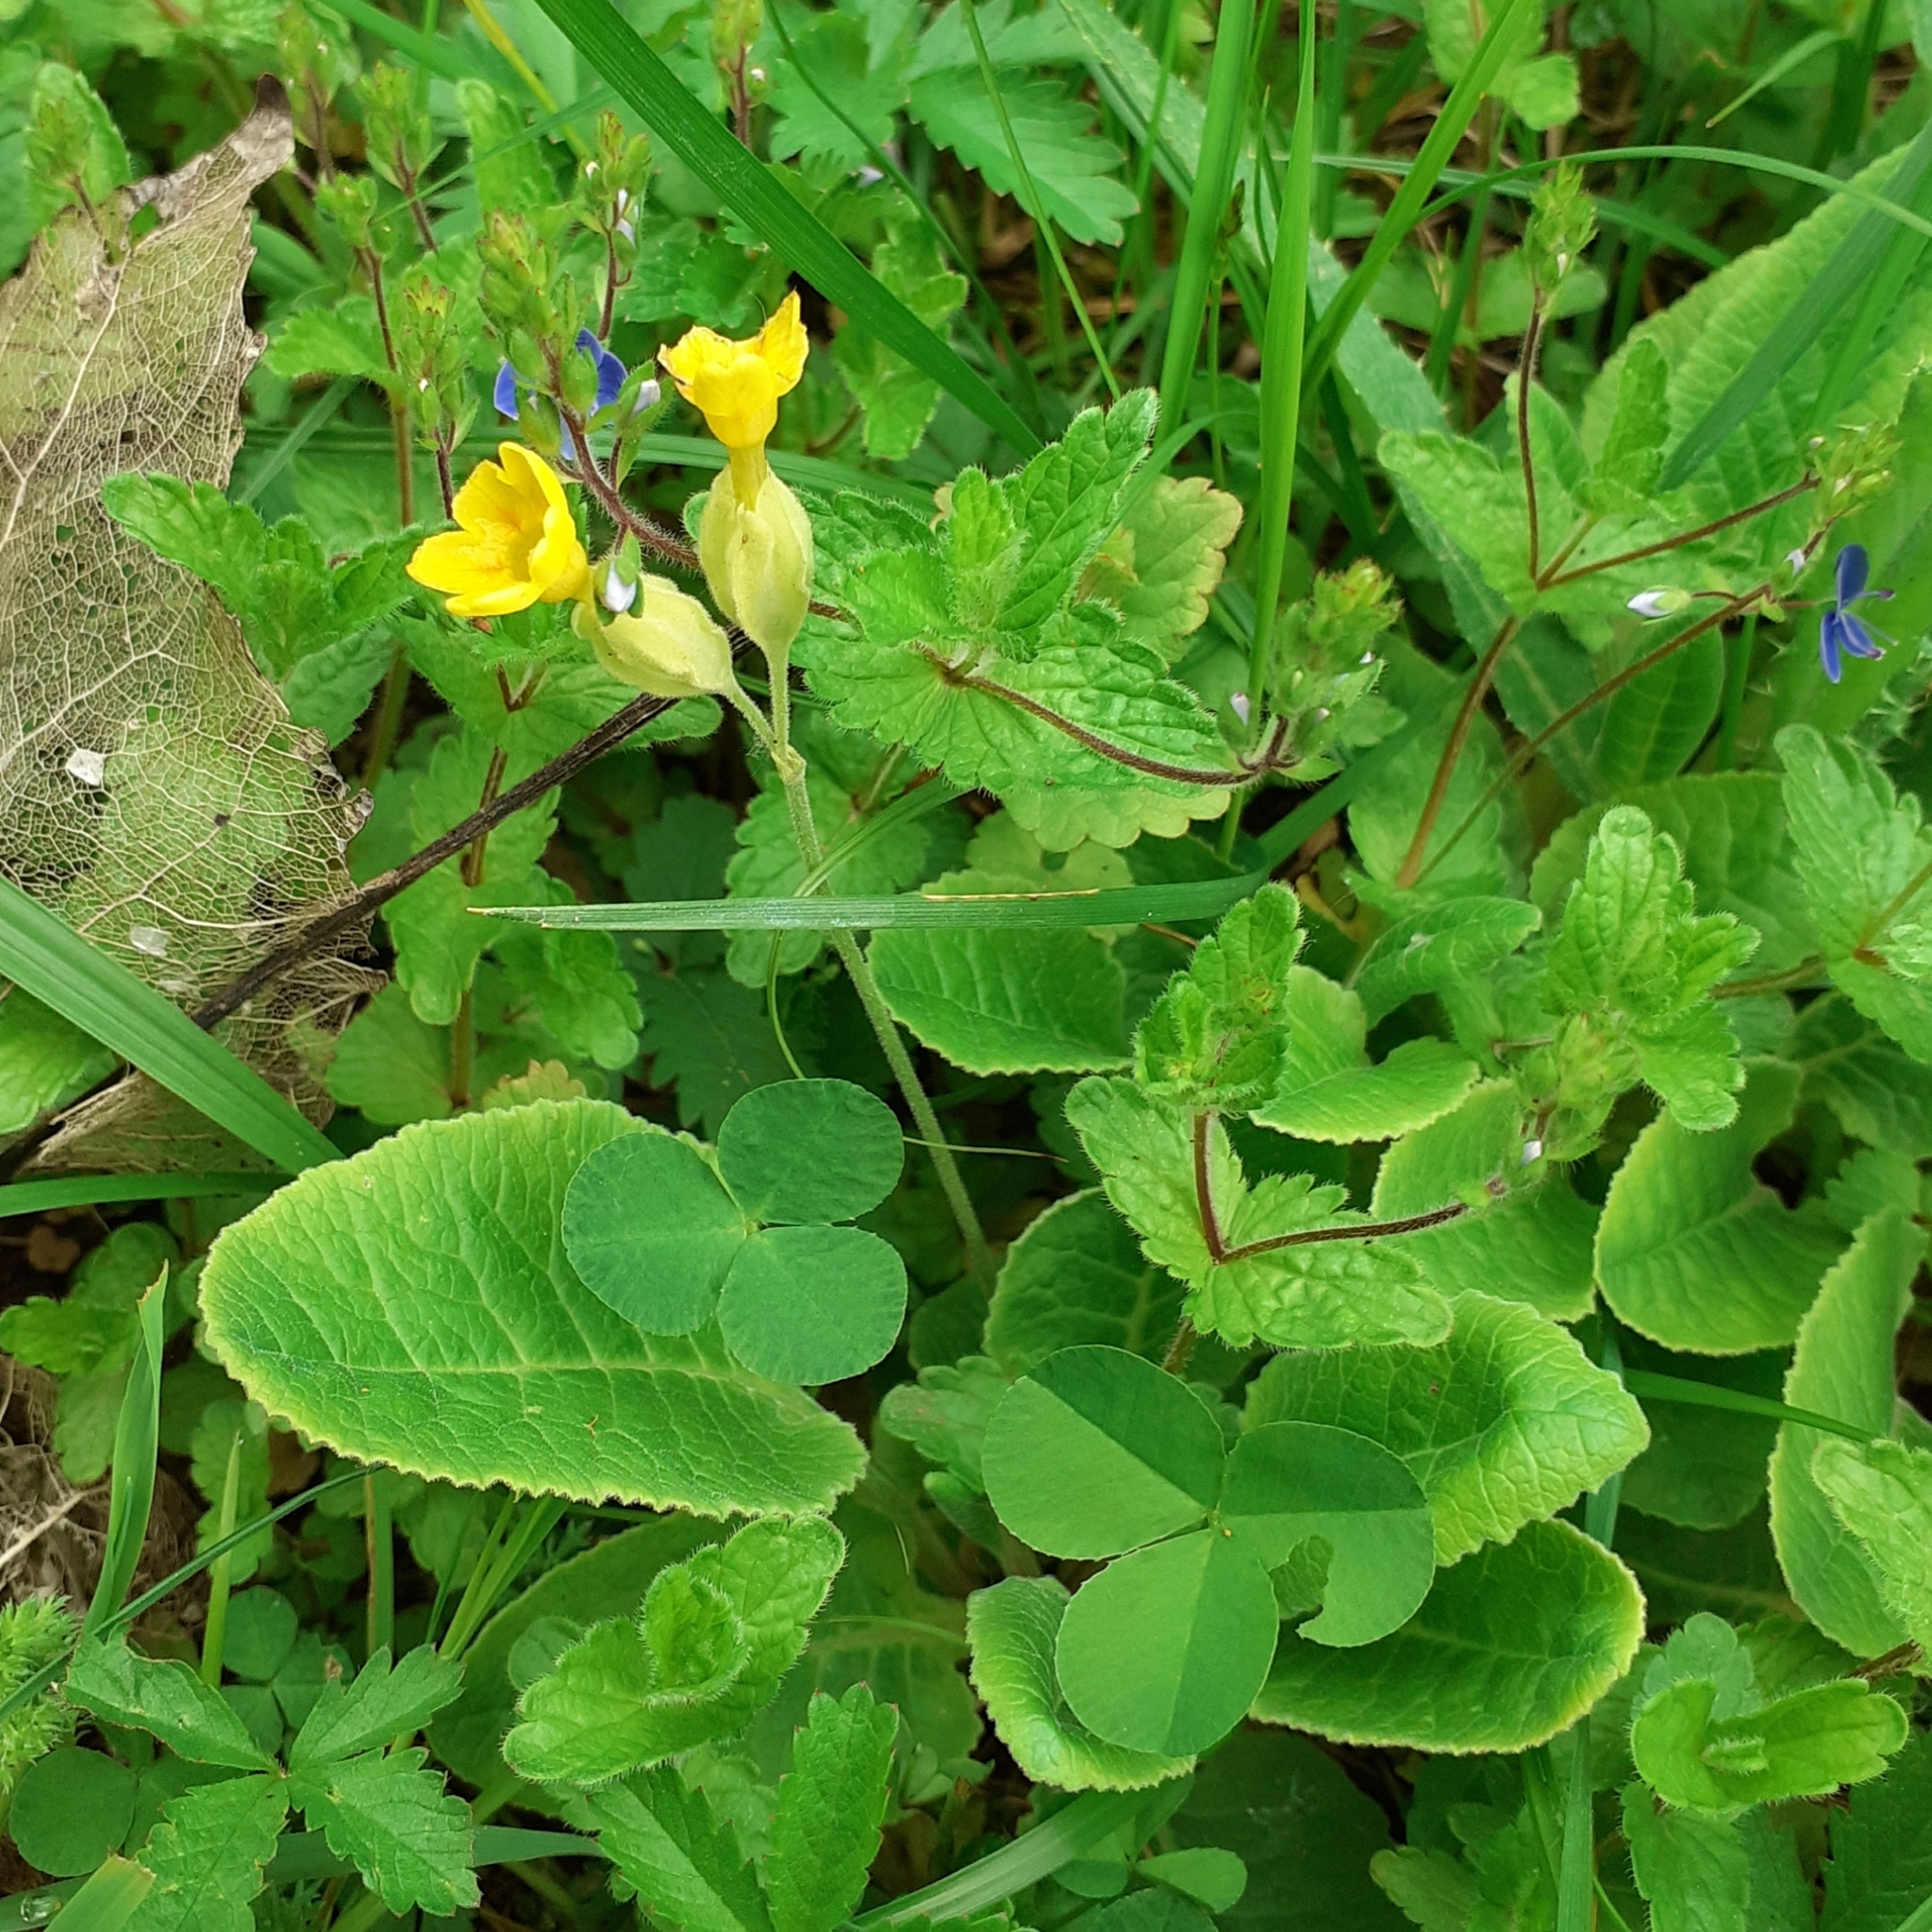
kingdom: Plantae
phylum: Tracheophyta
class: Magnoliopsida
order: Ericales
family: Primulaceae
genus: Primula
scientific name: Primula veris
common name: Cowslip
